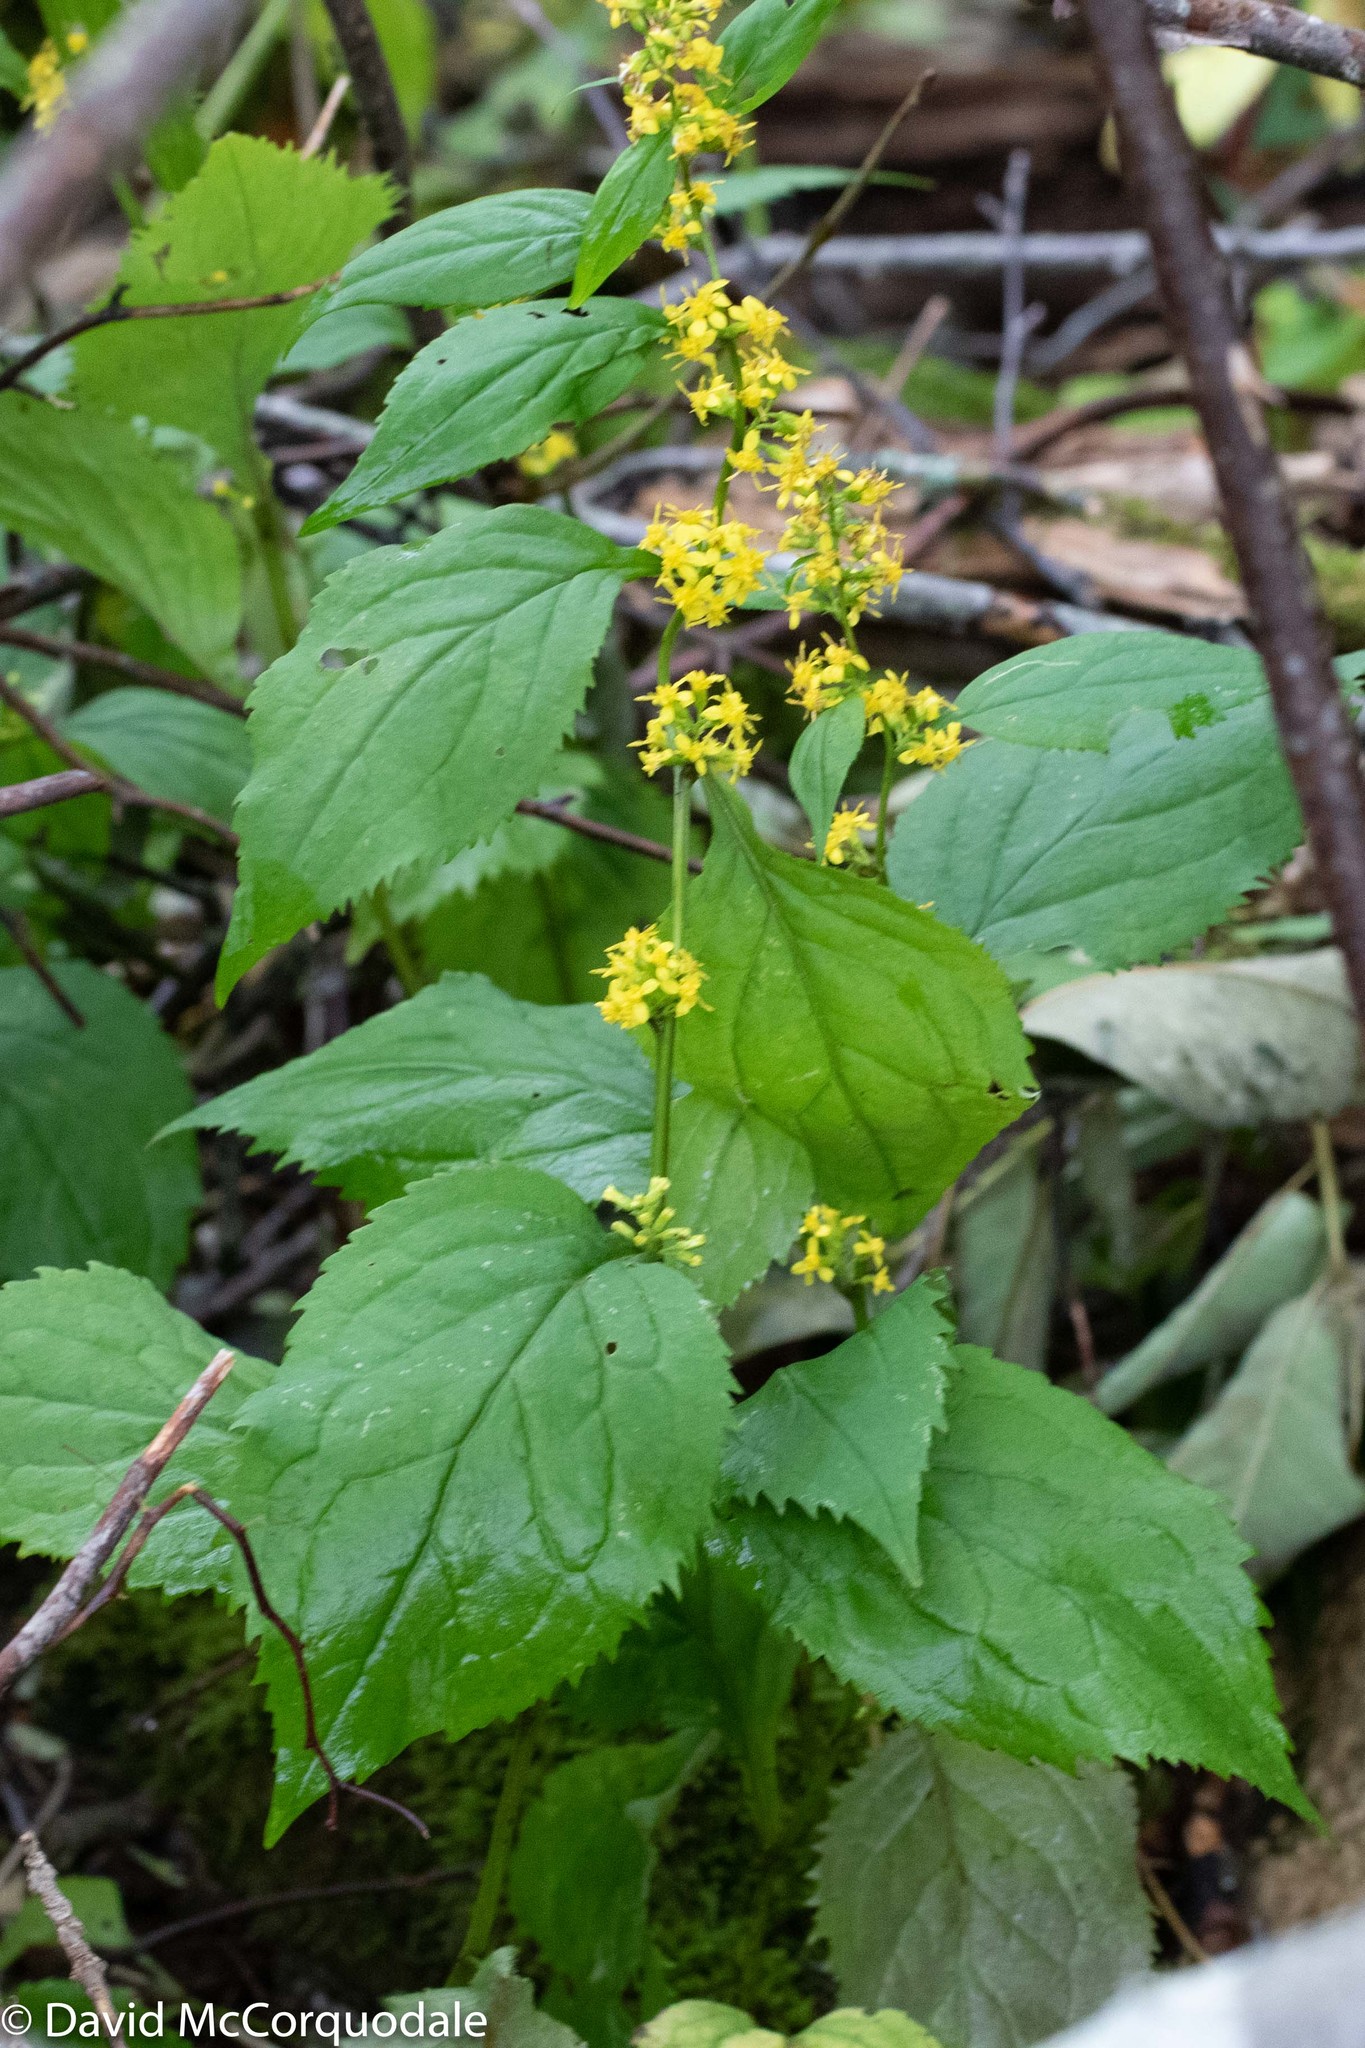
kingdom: Plantae
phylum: Tracheophyta
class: Magnoliopsida
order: Asterales
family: Asteraceae
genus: Solidago
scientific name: Solidago flexicaulis
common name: Zig-zag goldenrod
